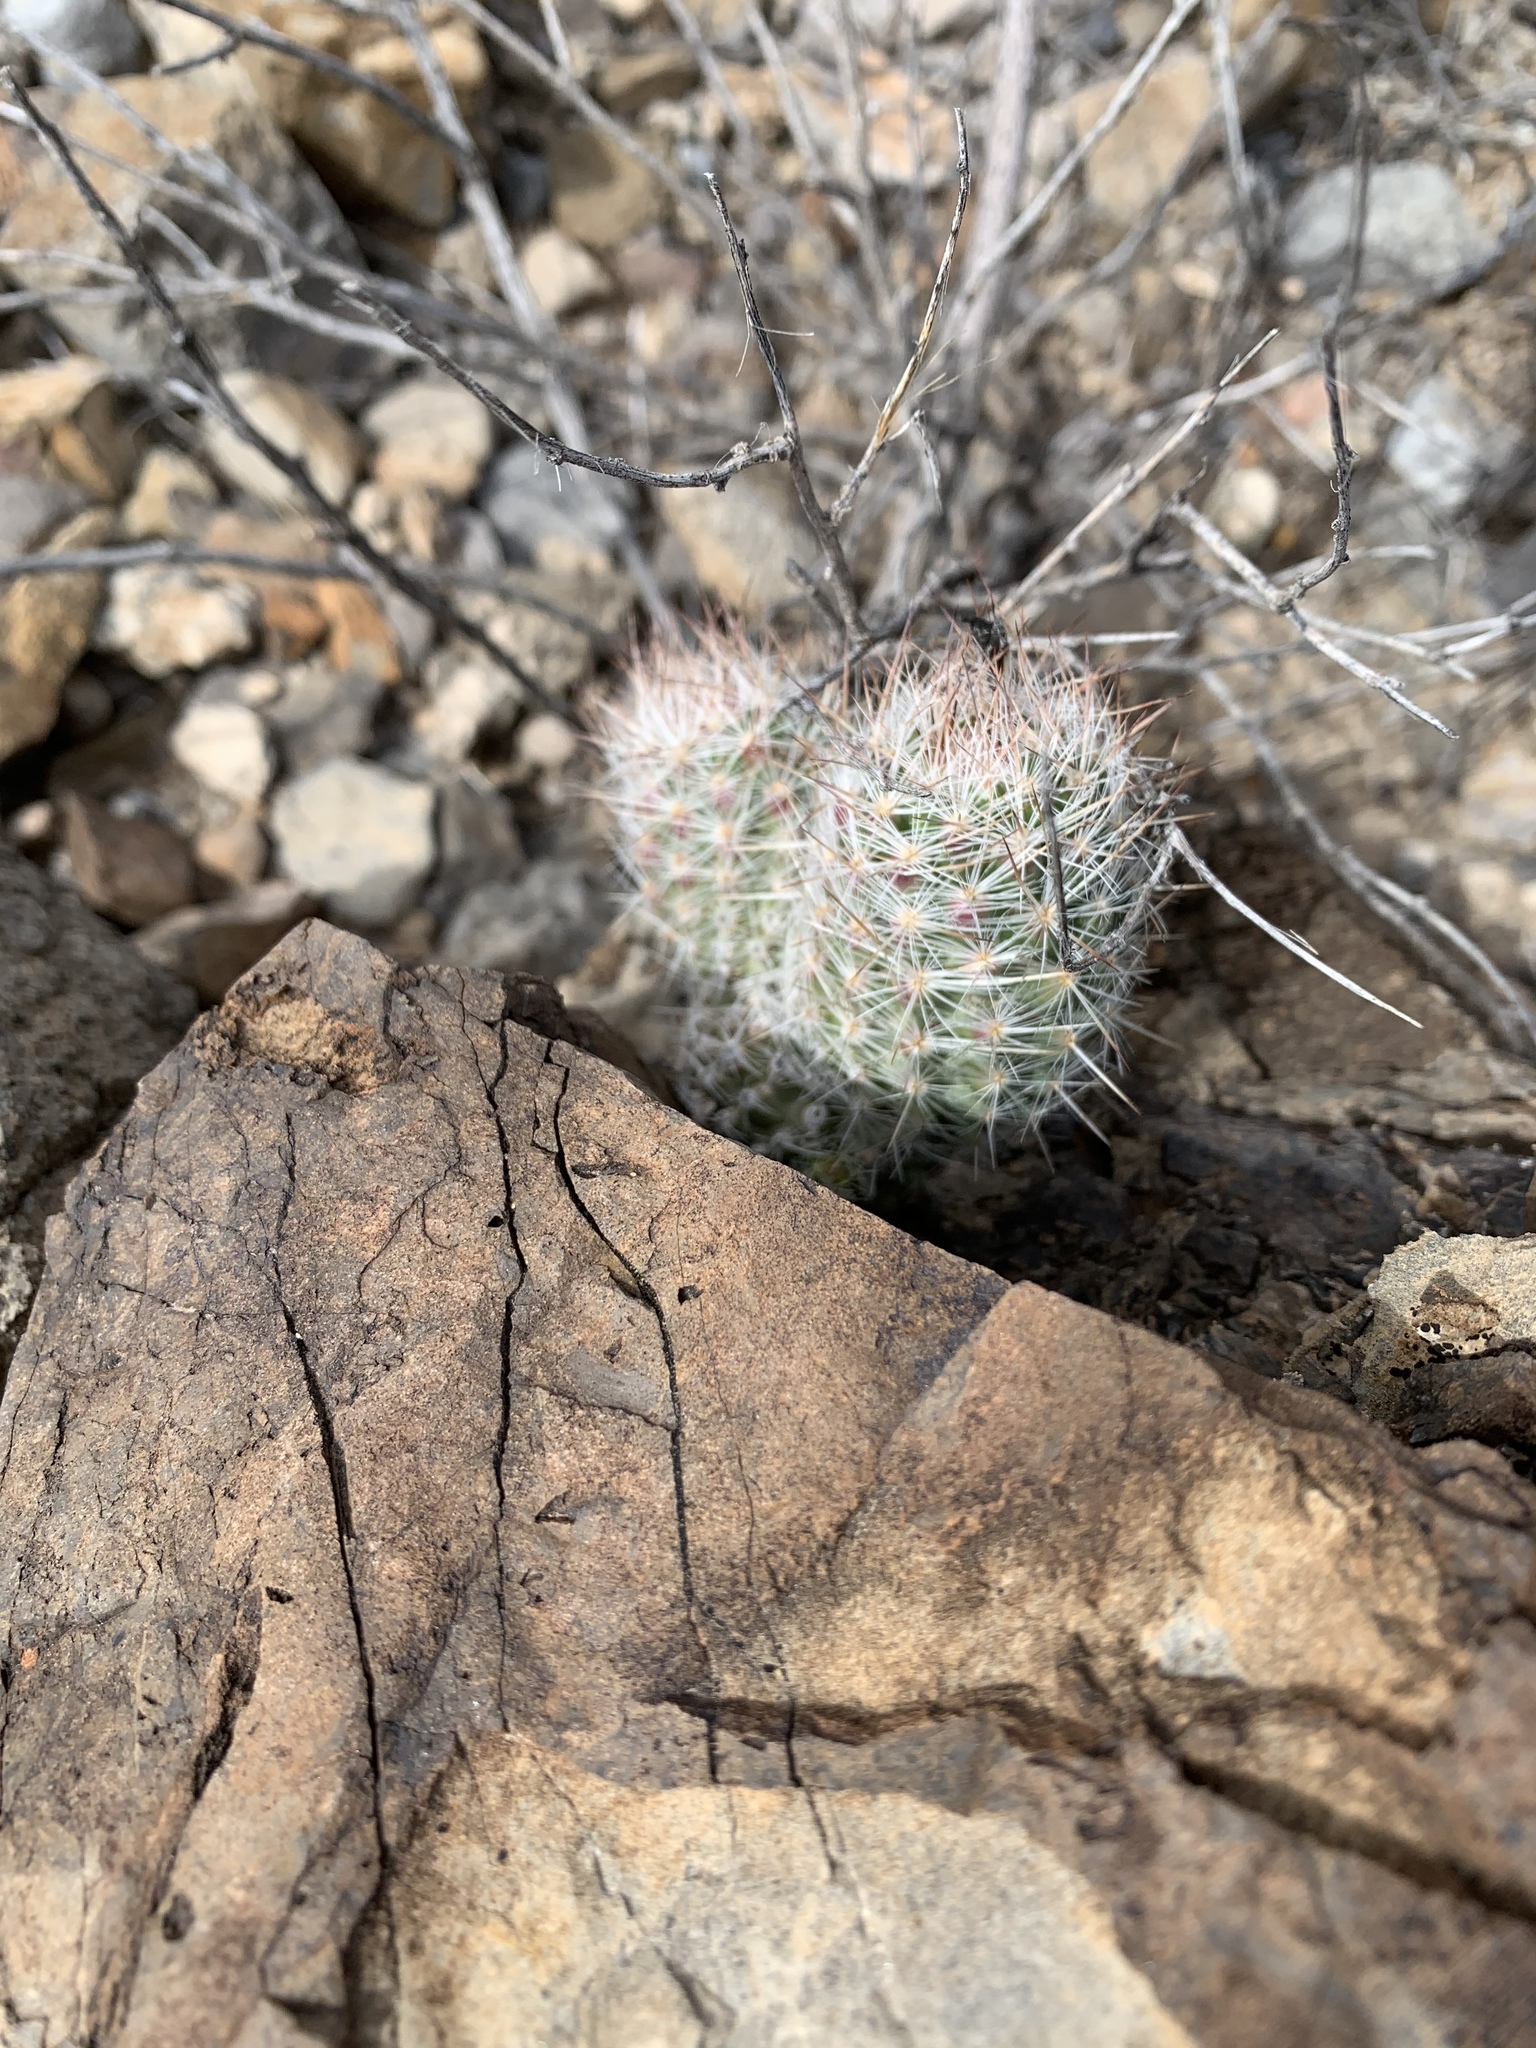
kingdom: Plantae
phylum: Tracheophyta
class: Magnoliopsida
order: Caryophyllales
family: Cactaceae
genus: Pelecyphora
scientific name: Pelecyphora tuberculosa
